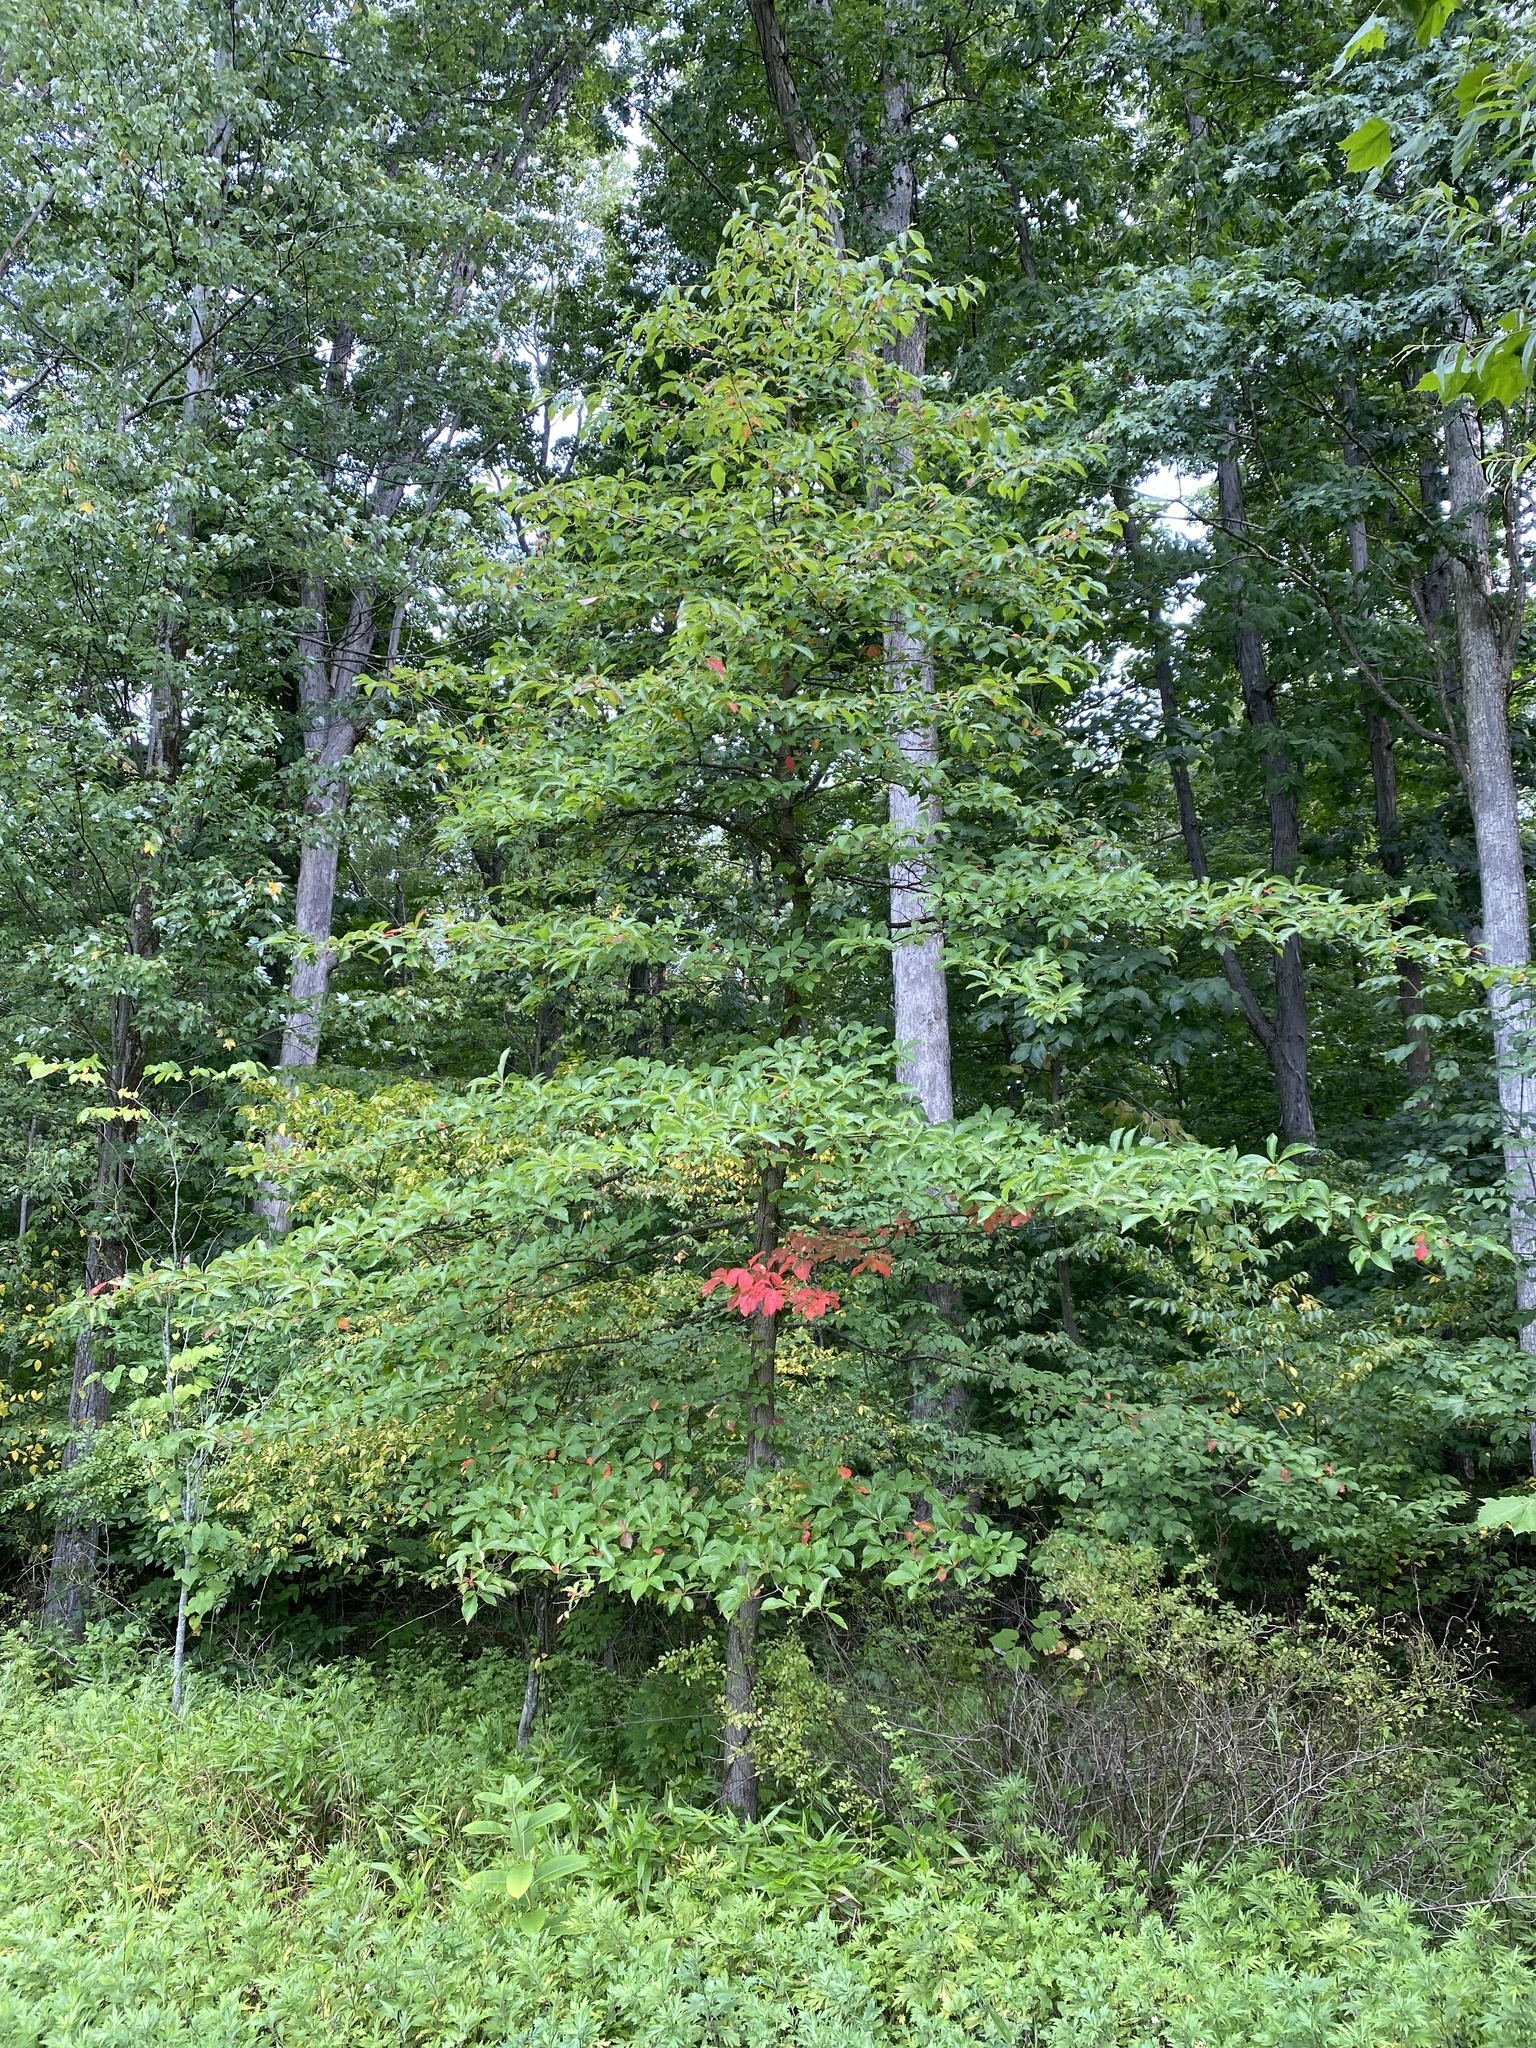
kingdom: Plantae
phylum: Tracheophyta
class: Magnoliopsida
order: Cornales
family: Nyssaceae
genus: Nyssa
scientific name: Nyssa sylvatica
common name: Black tupelo
